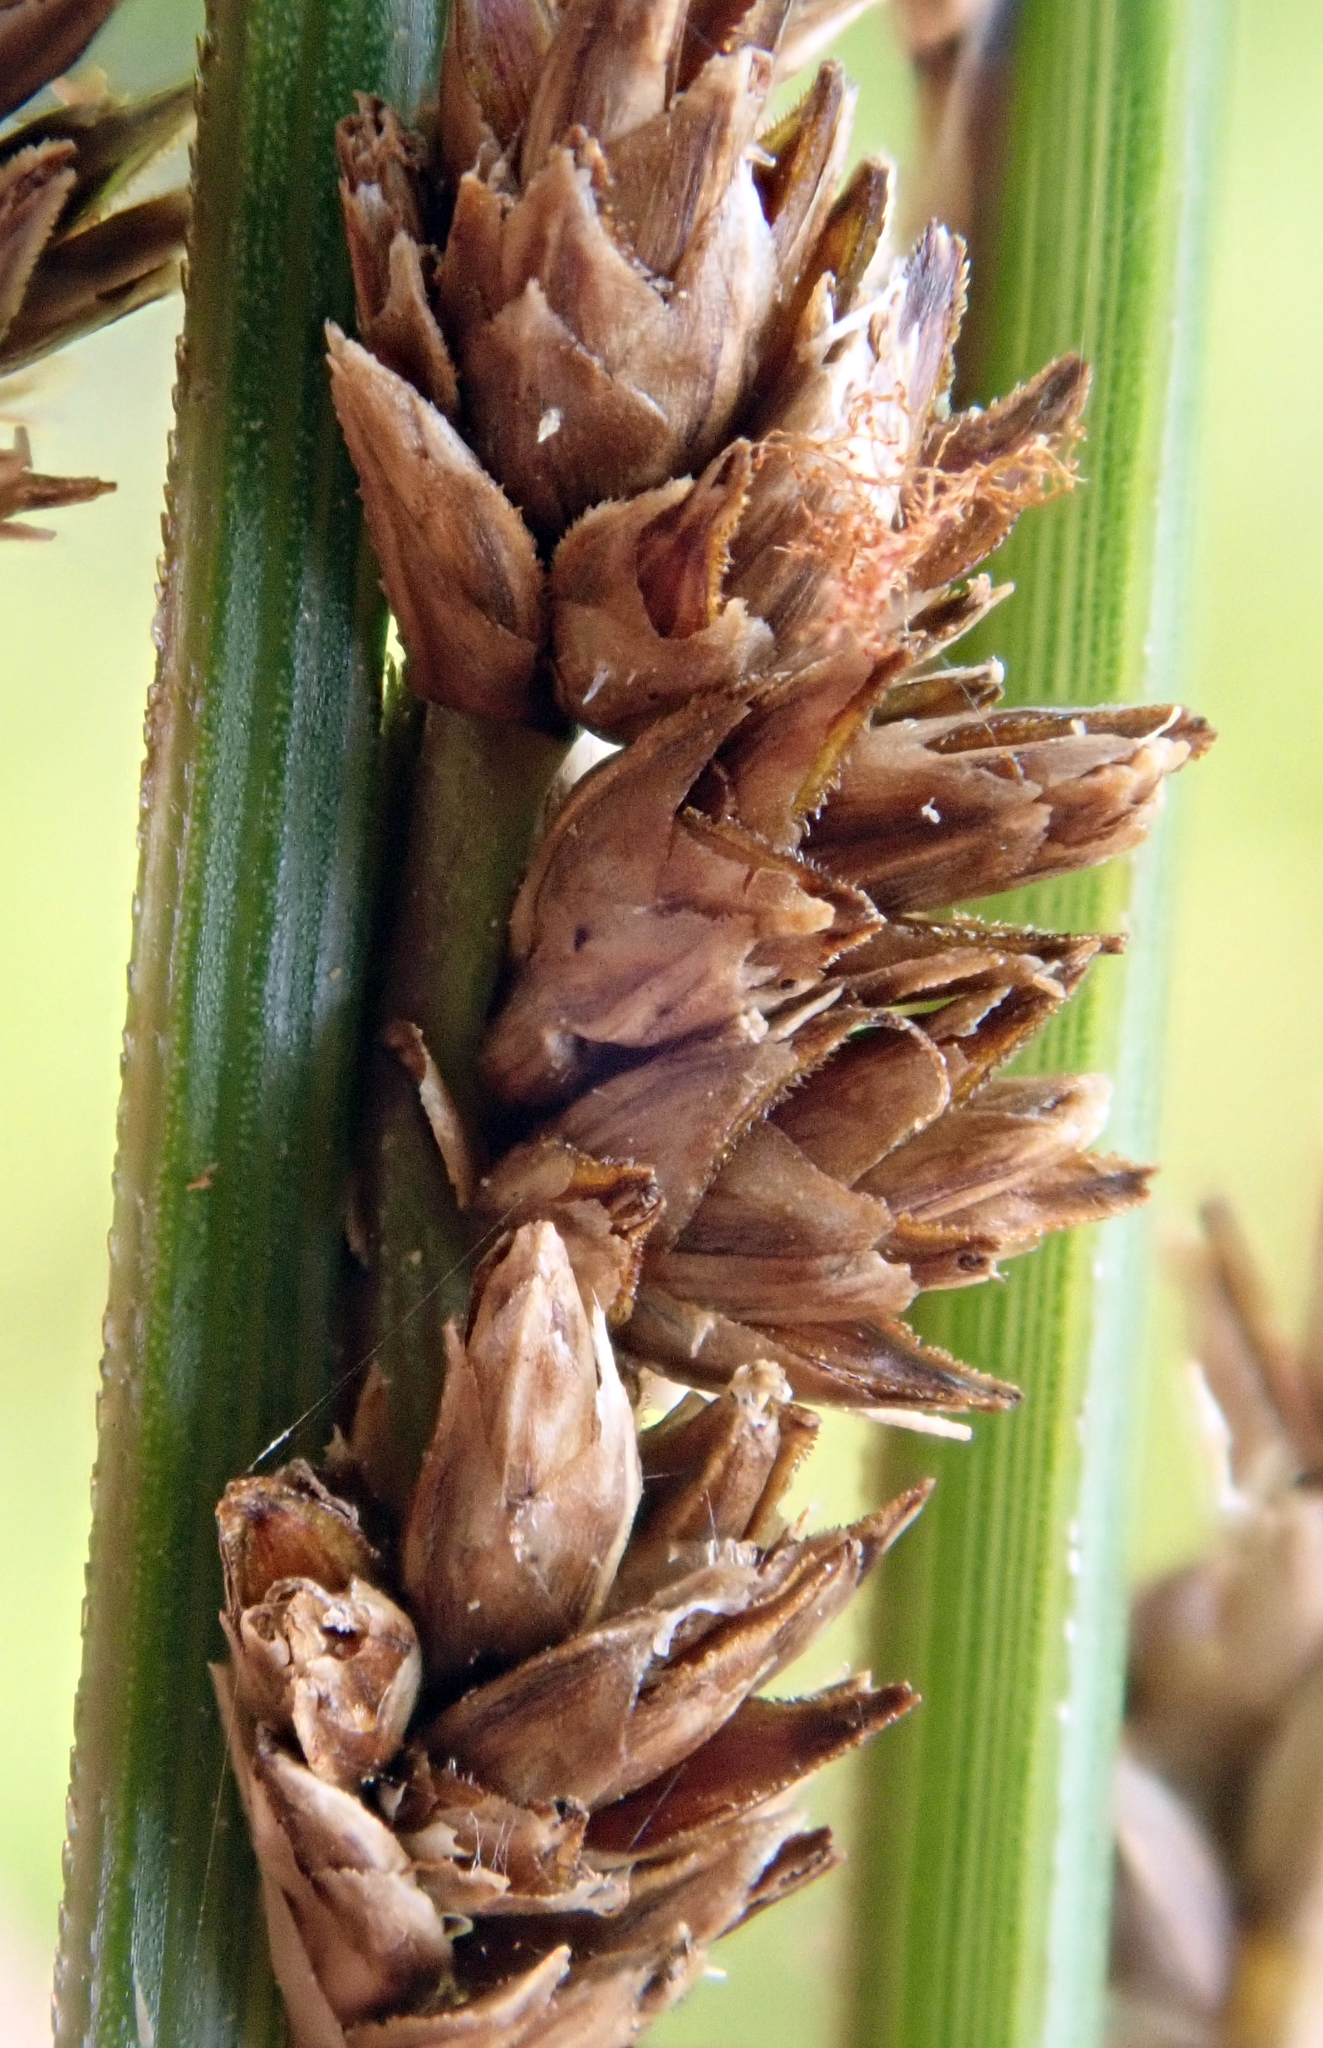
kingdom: Plantae
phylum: Tracheophyta
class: Liliopsida
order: Poales
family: Cyperaceae
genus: Carex
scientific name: Carex virgata
